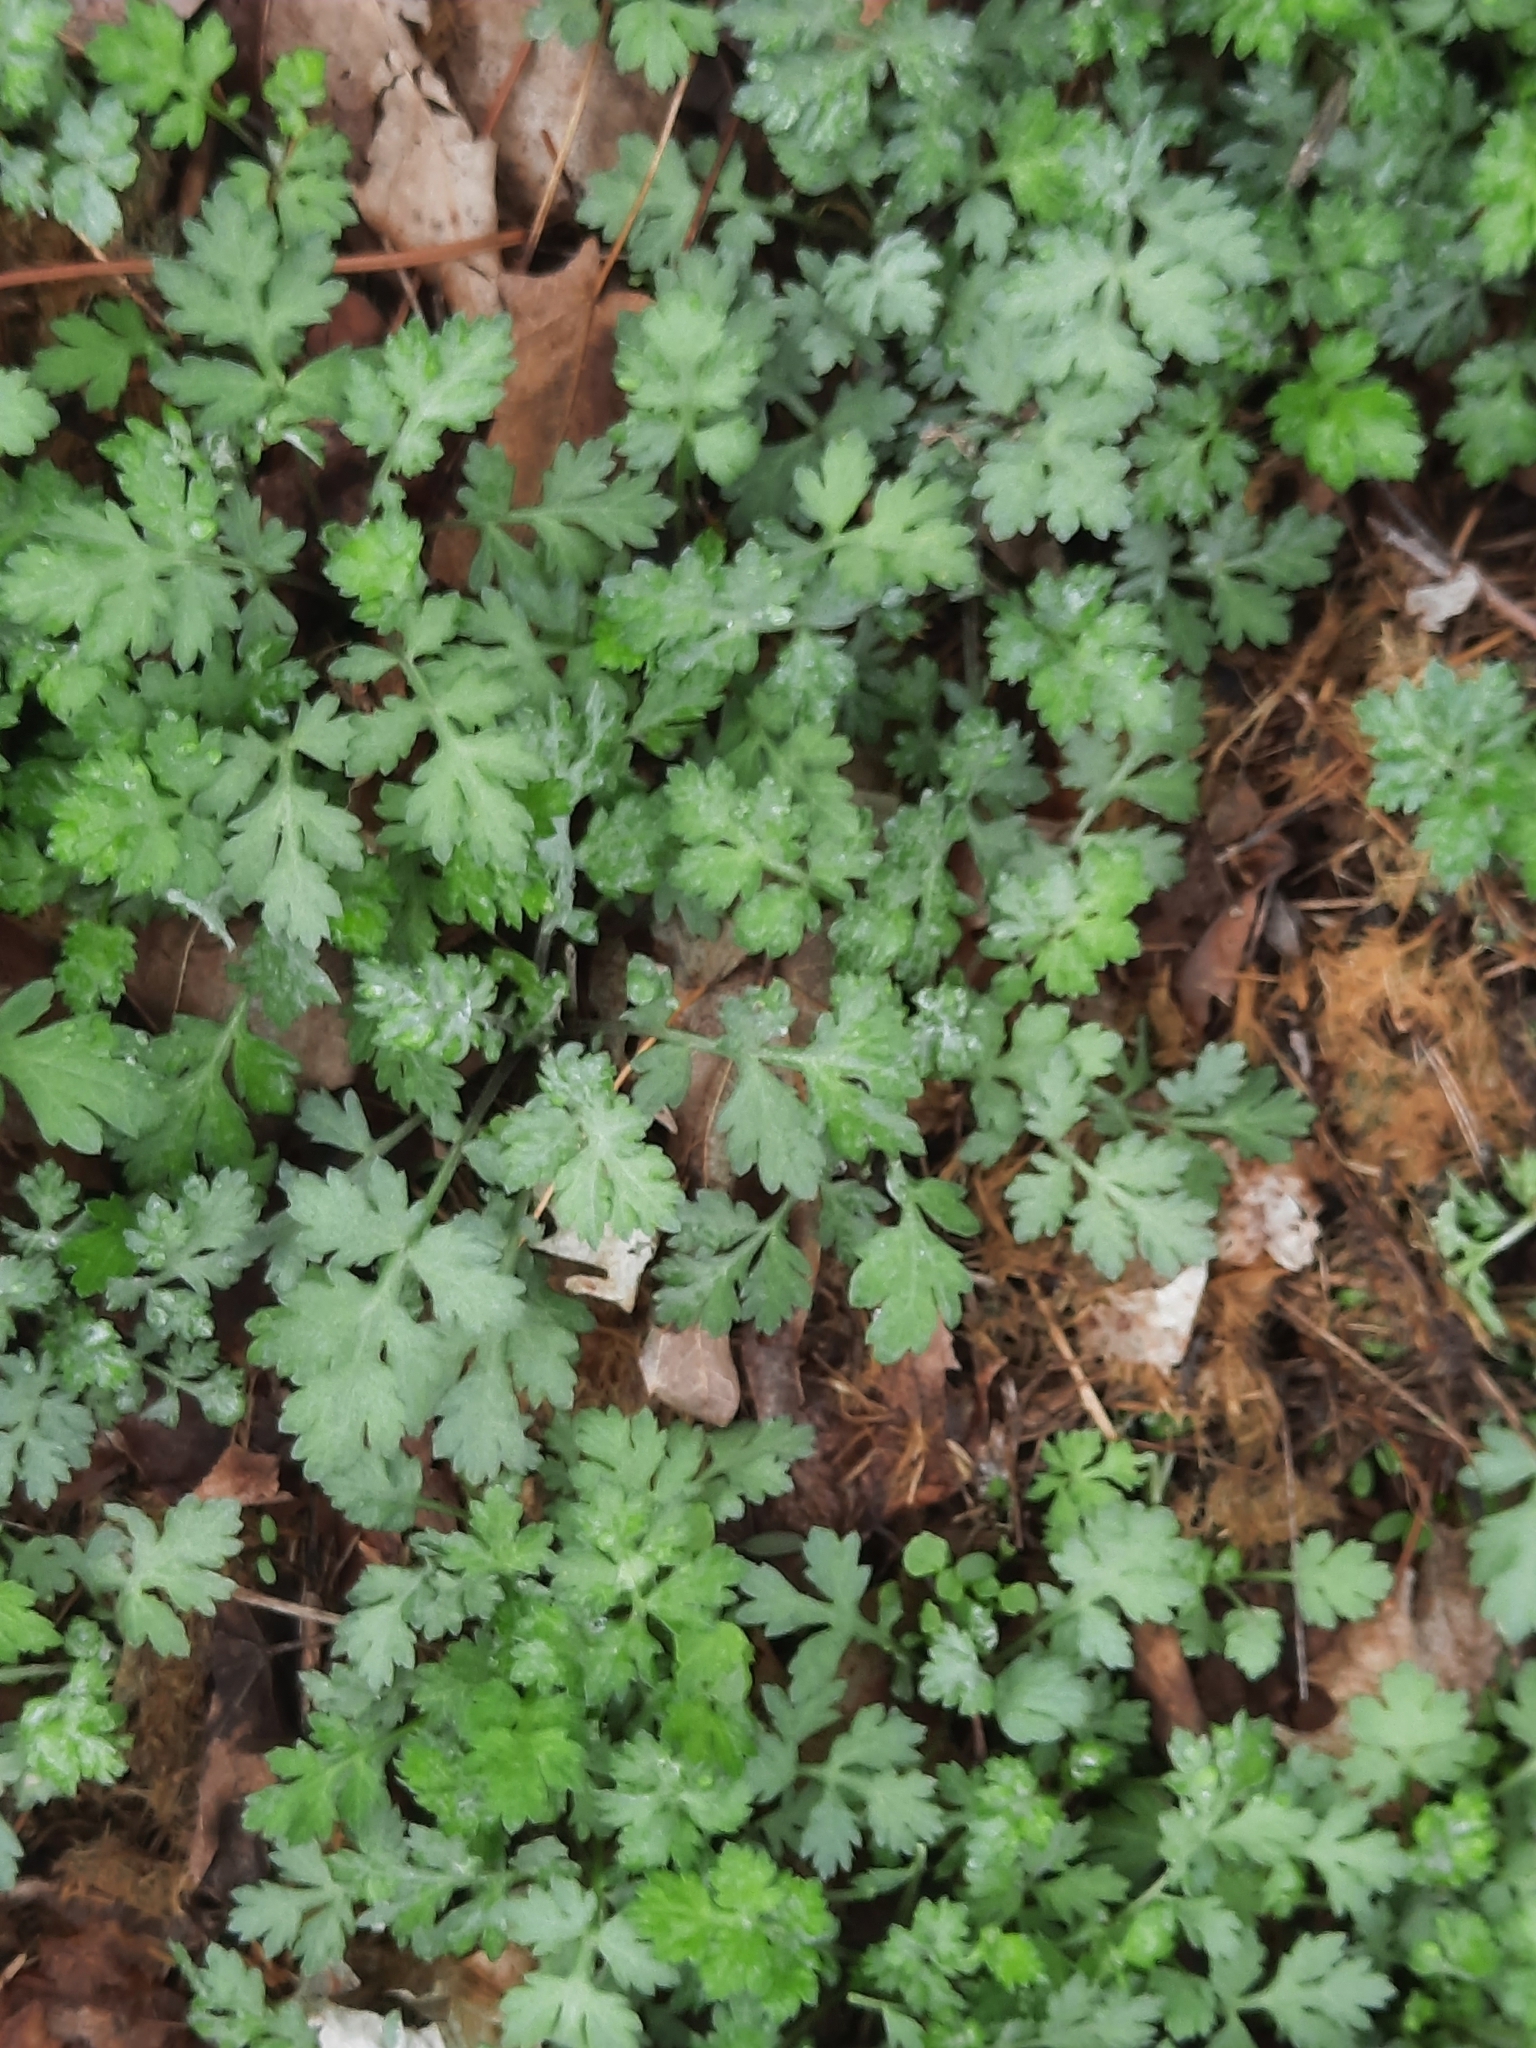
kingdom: Plantae
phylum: Tracheophyta
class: Magnoliopsida
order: Asterales
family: Asteraceae
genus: Artemisia
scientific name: Artemisia vulgaris
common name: Mugwort
